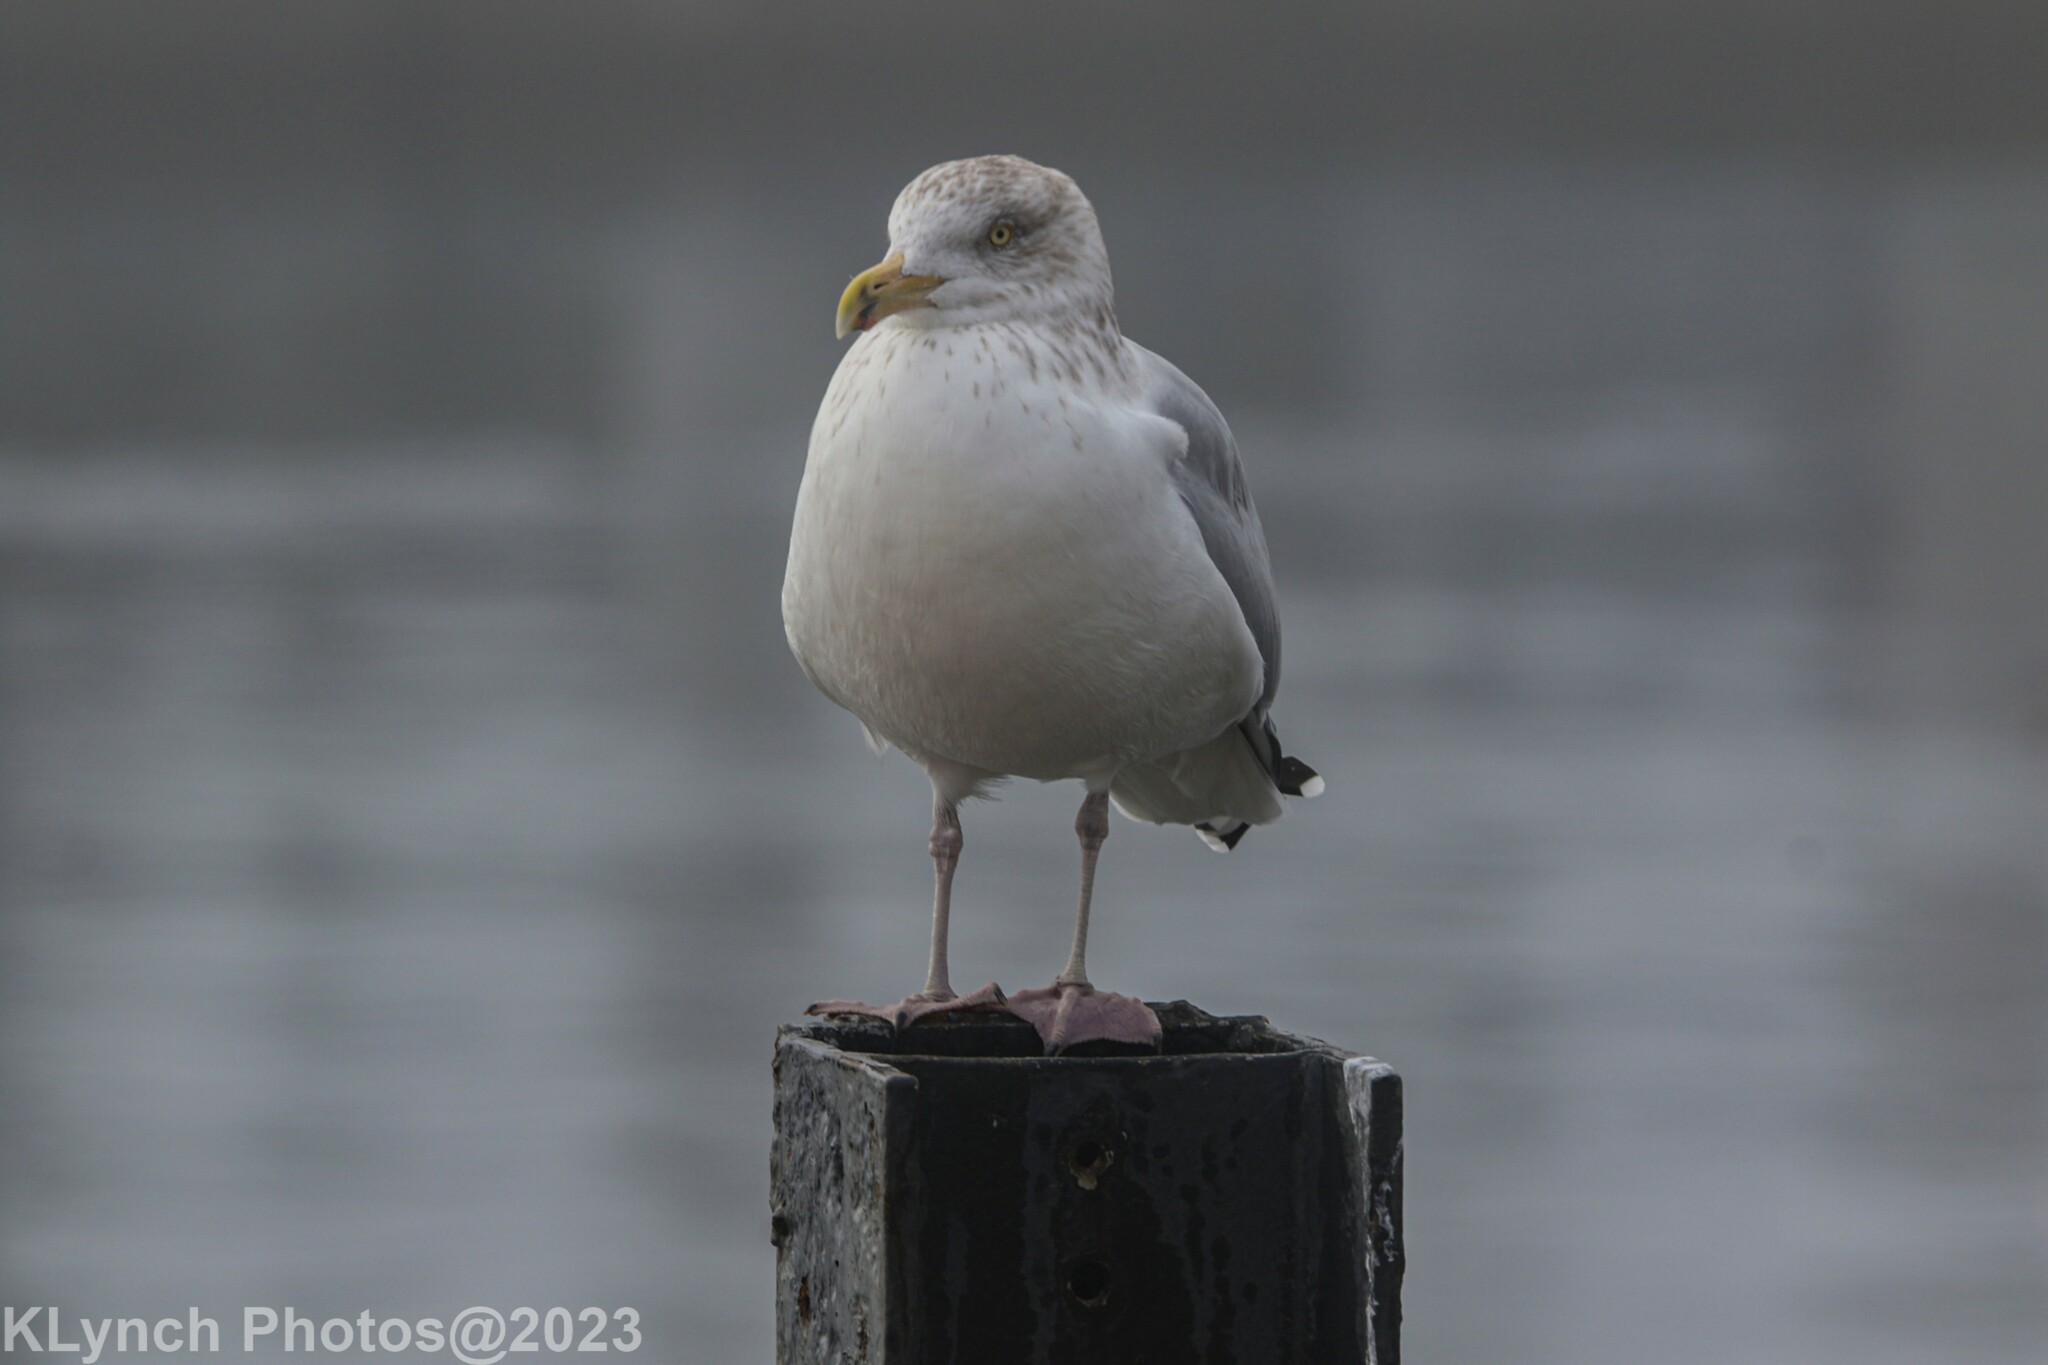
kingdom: Animalia
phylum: Chordata
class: Aves
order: Charadriiformes
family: Laridae
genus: Larus
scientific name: Larus argentatus
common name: Herring gull
